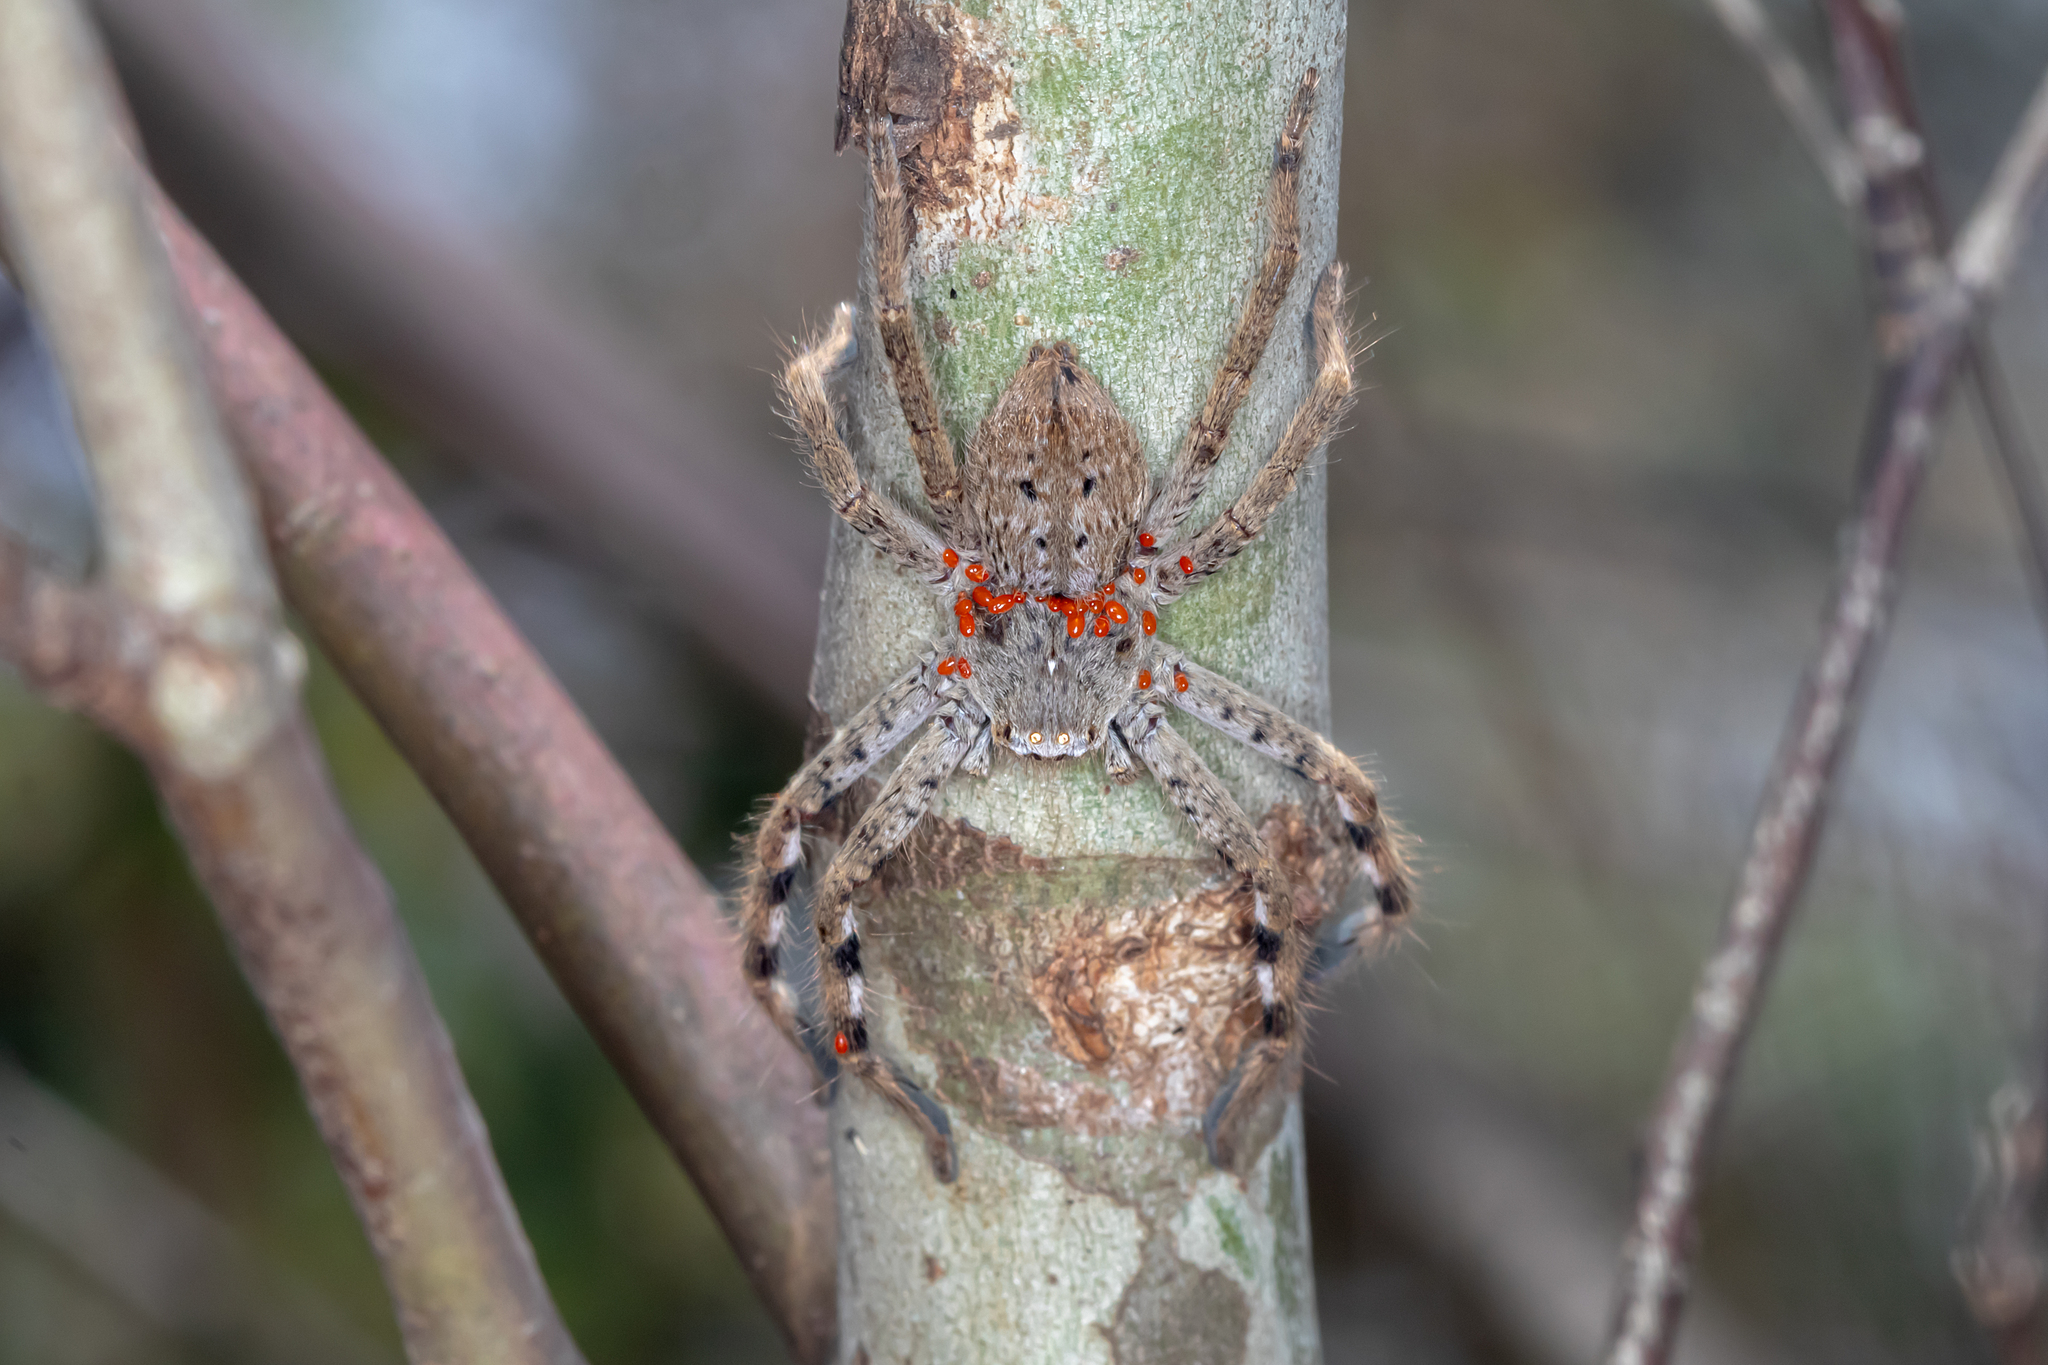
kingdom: Animalia
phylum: Arthropoda
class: Arachnida
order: Araneae
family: Sparassidae
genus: Isopedella
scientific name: Isopedella victorialis
